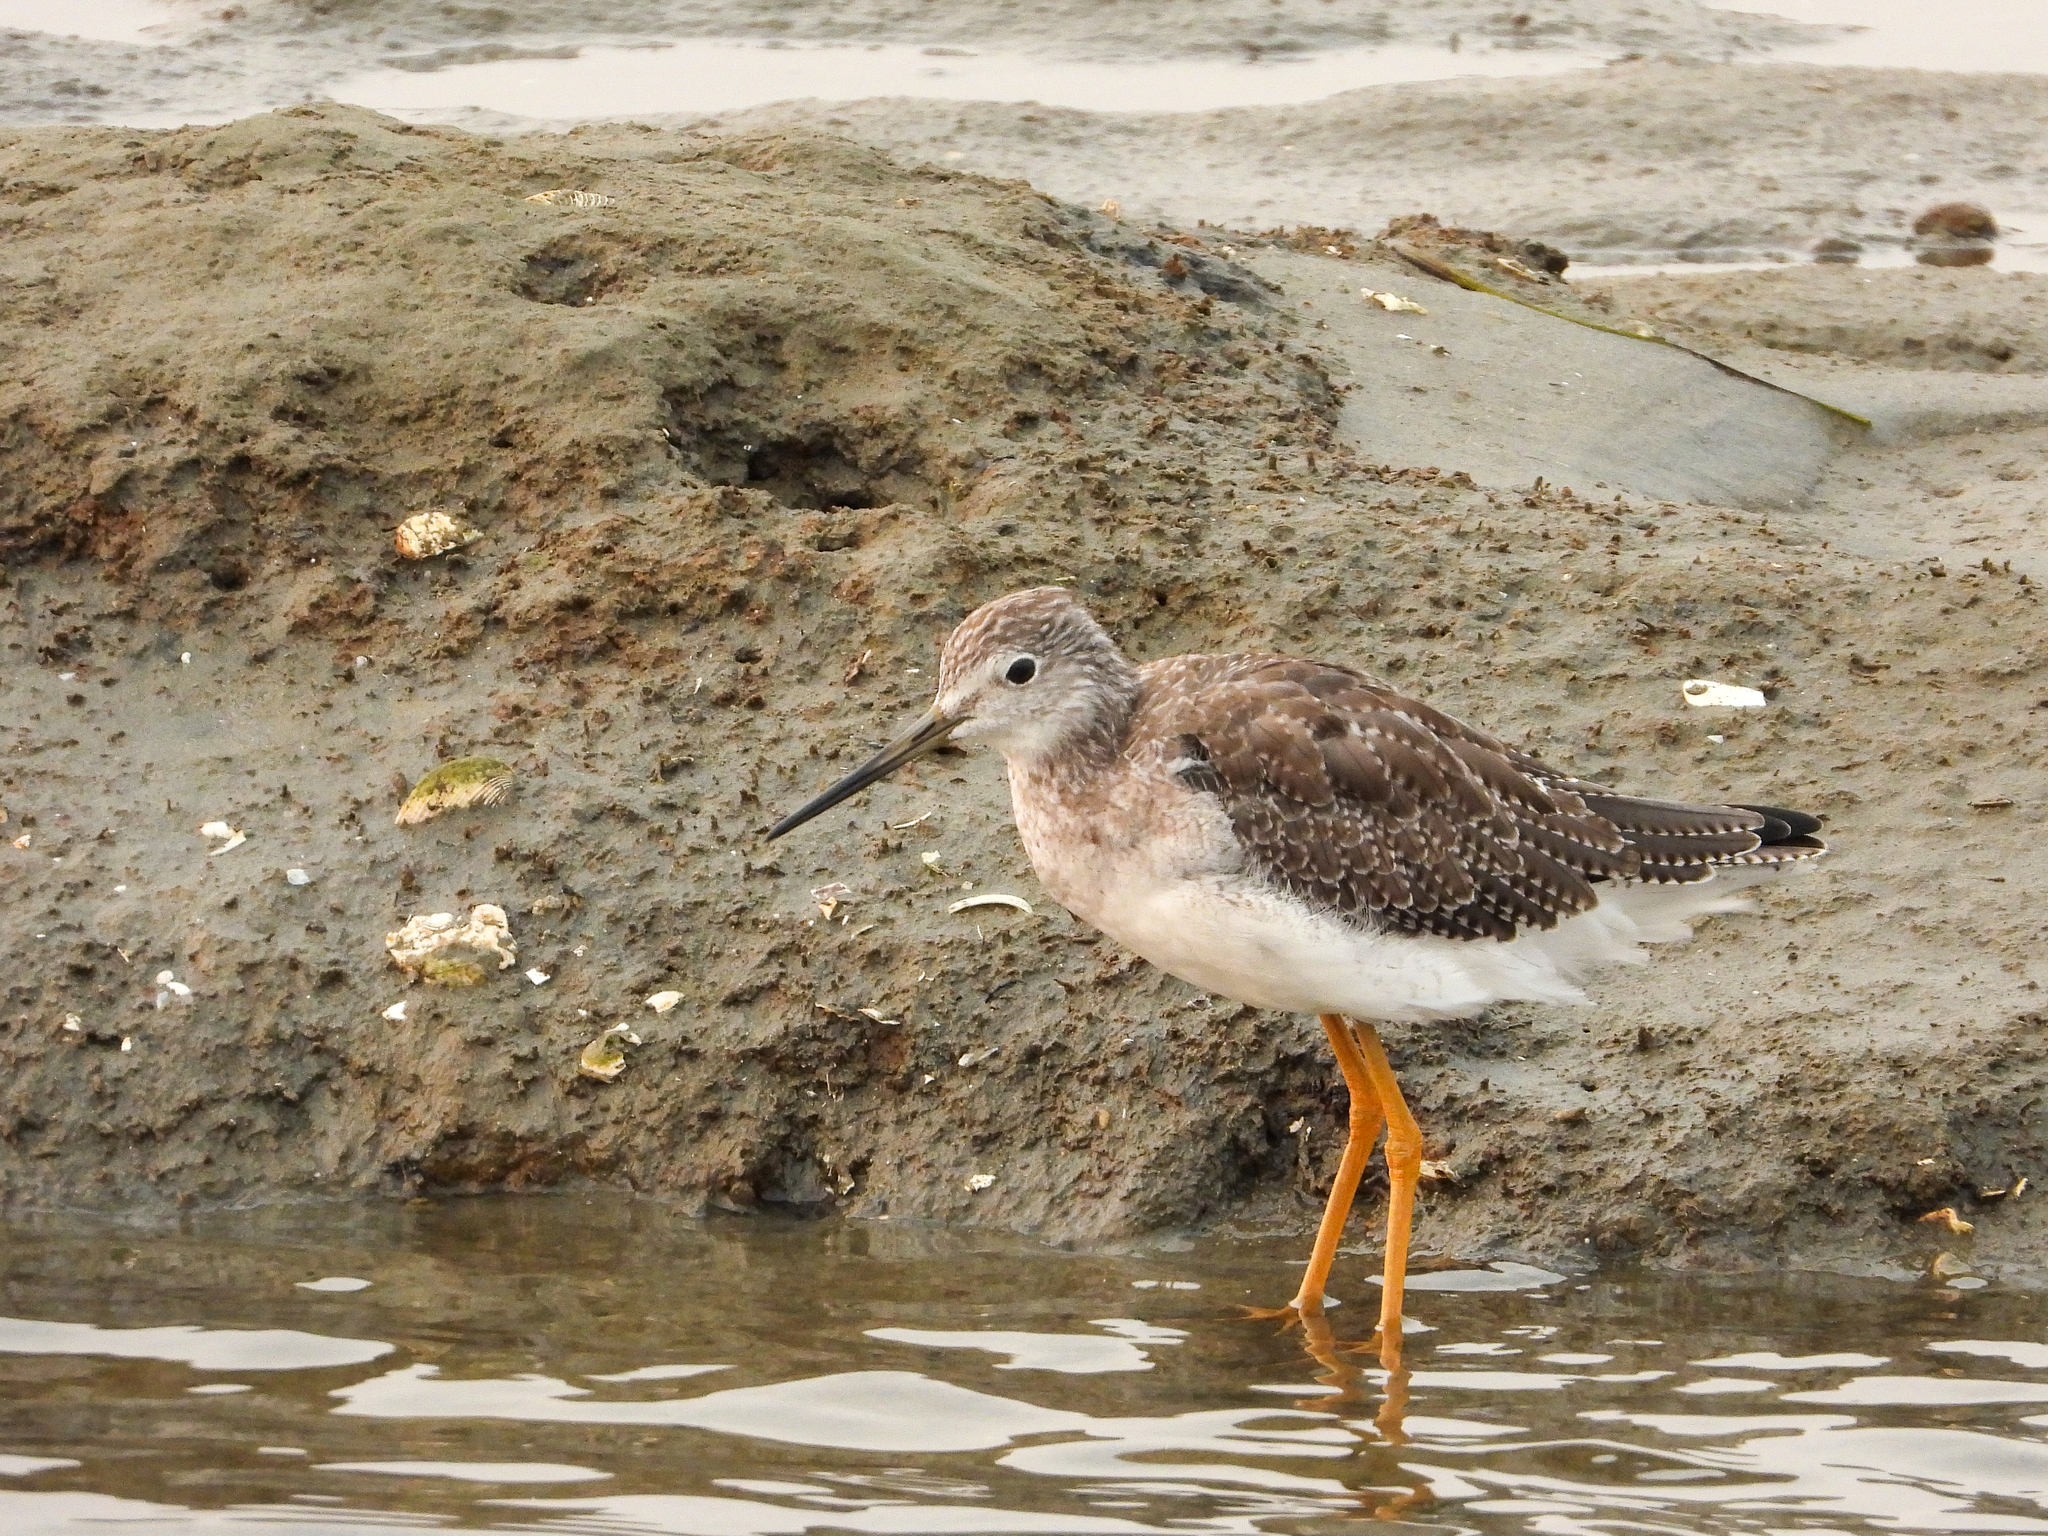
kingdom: Animalia
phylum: Chordata
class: Aves
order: Charadriiformes
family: Scolopacidae
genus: Tringa
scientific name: Tringa melanoleuca
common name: Greater yellowlegs
